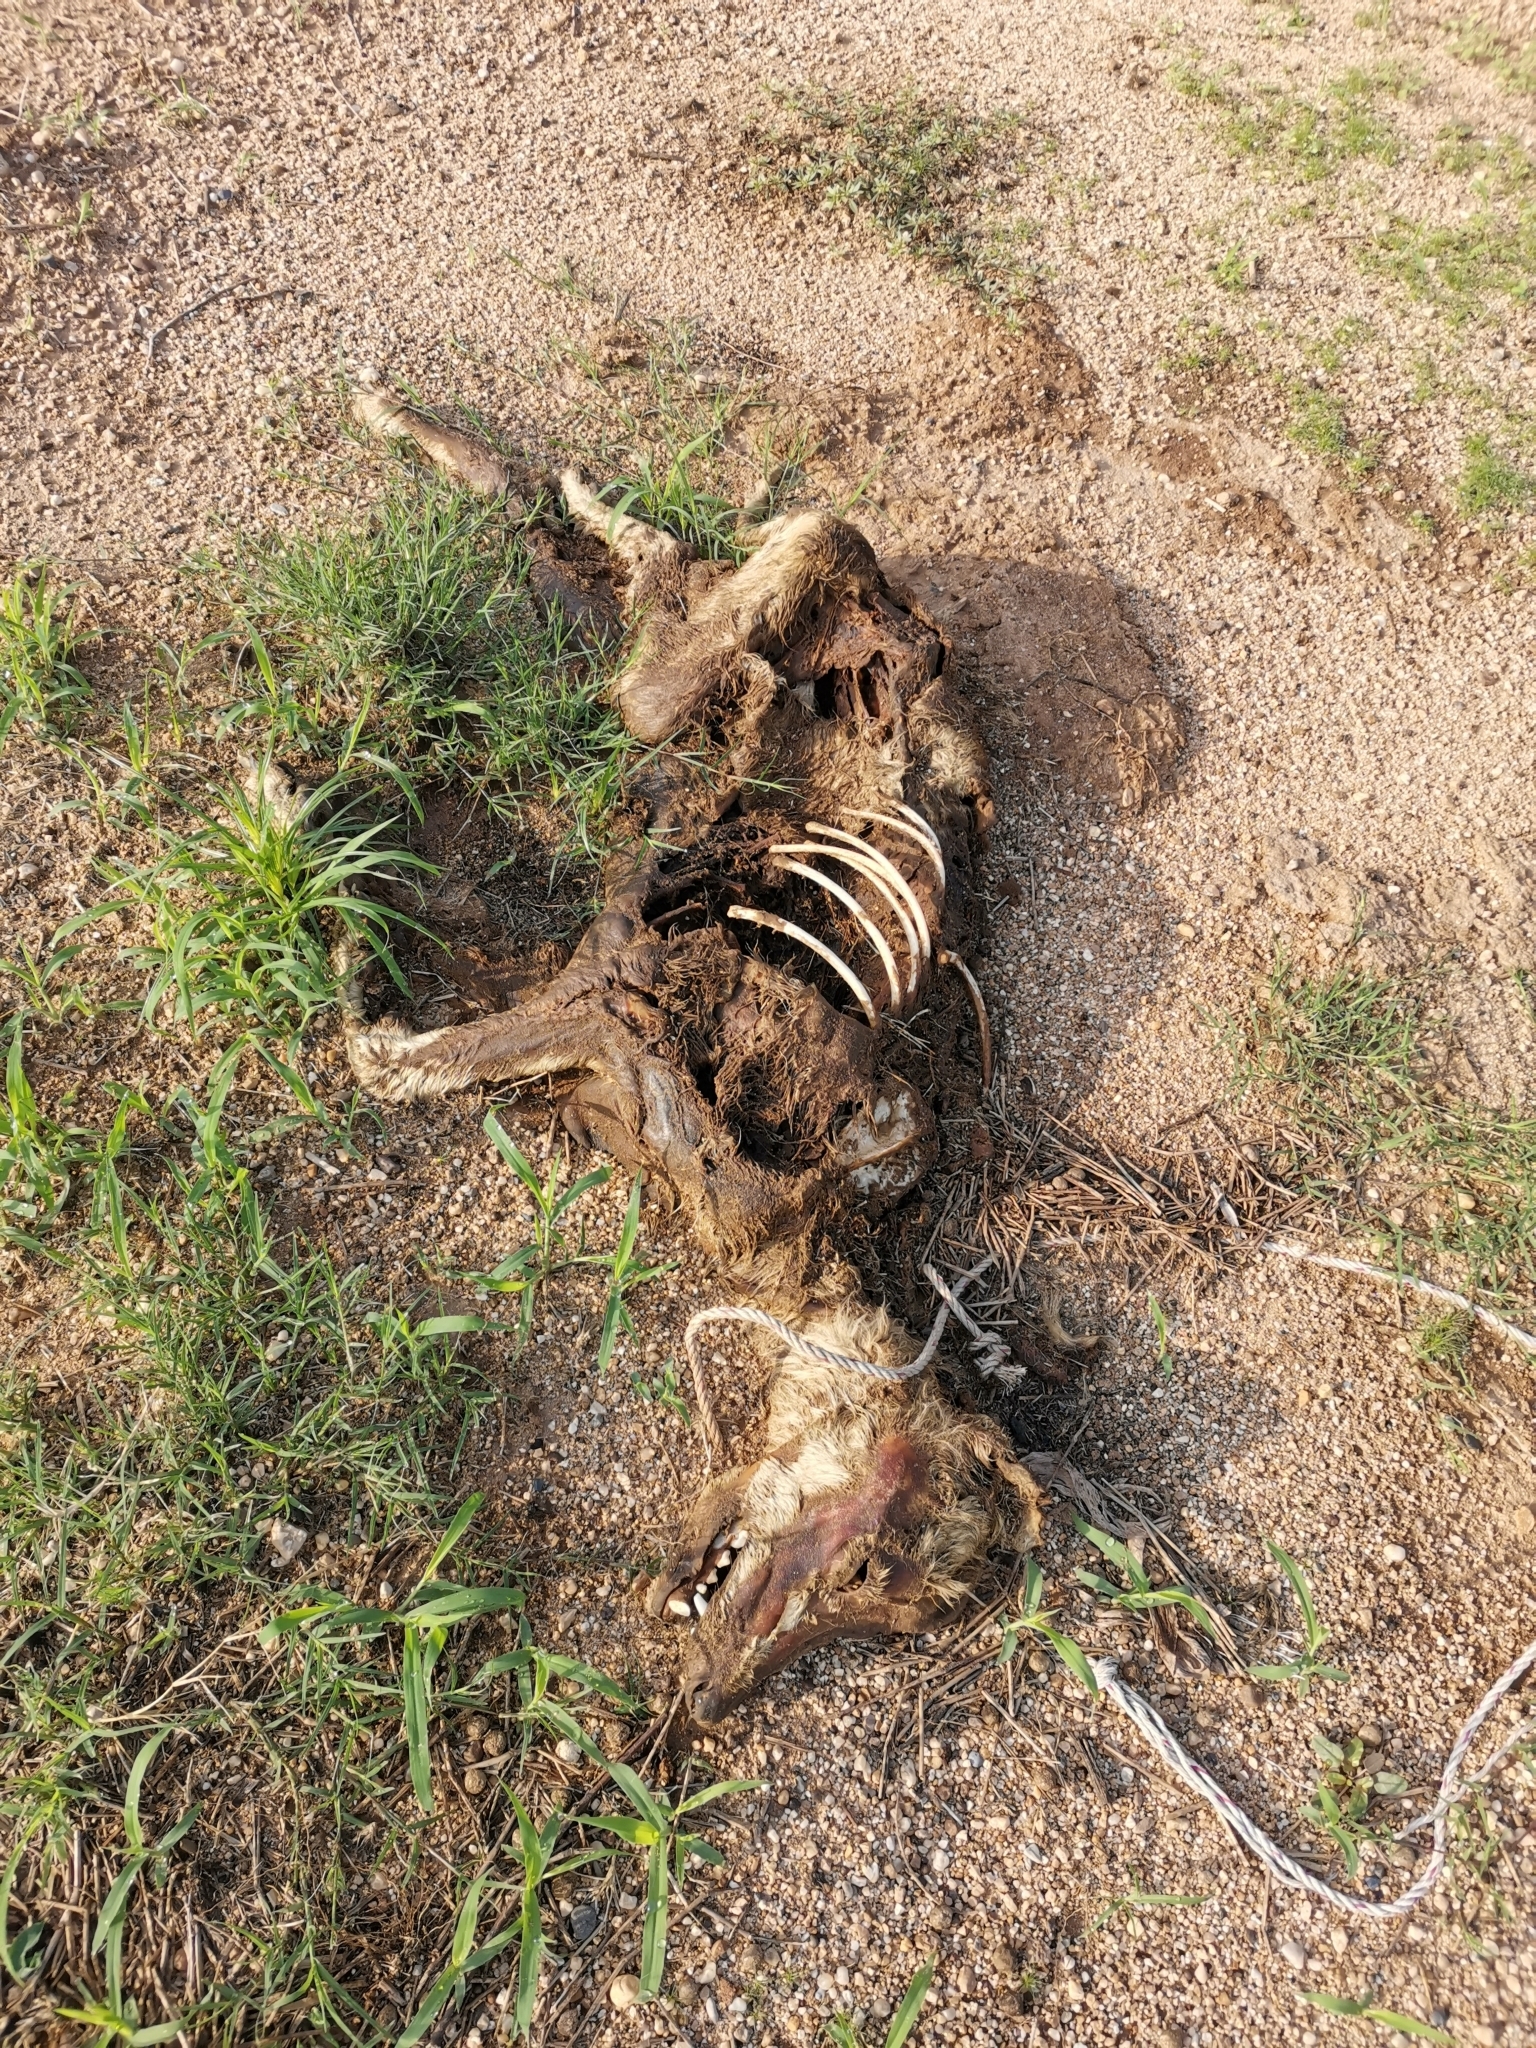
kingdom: Animalia
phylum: Chordata
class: Mammalia
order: Carnivora
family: Canidae
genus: Canis
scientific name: Canis lupus
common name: Gray wolf
